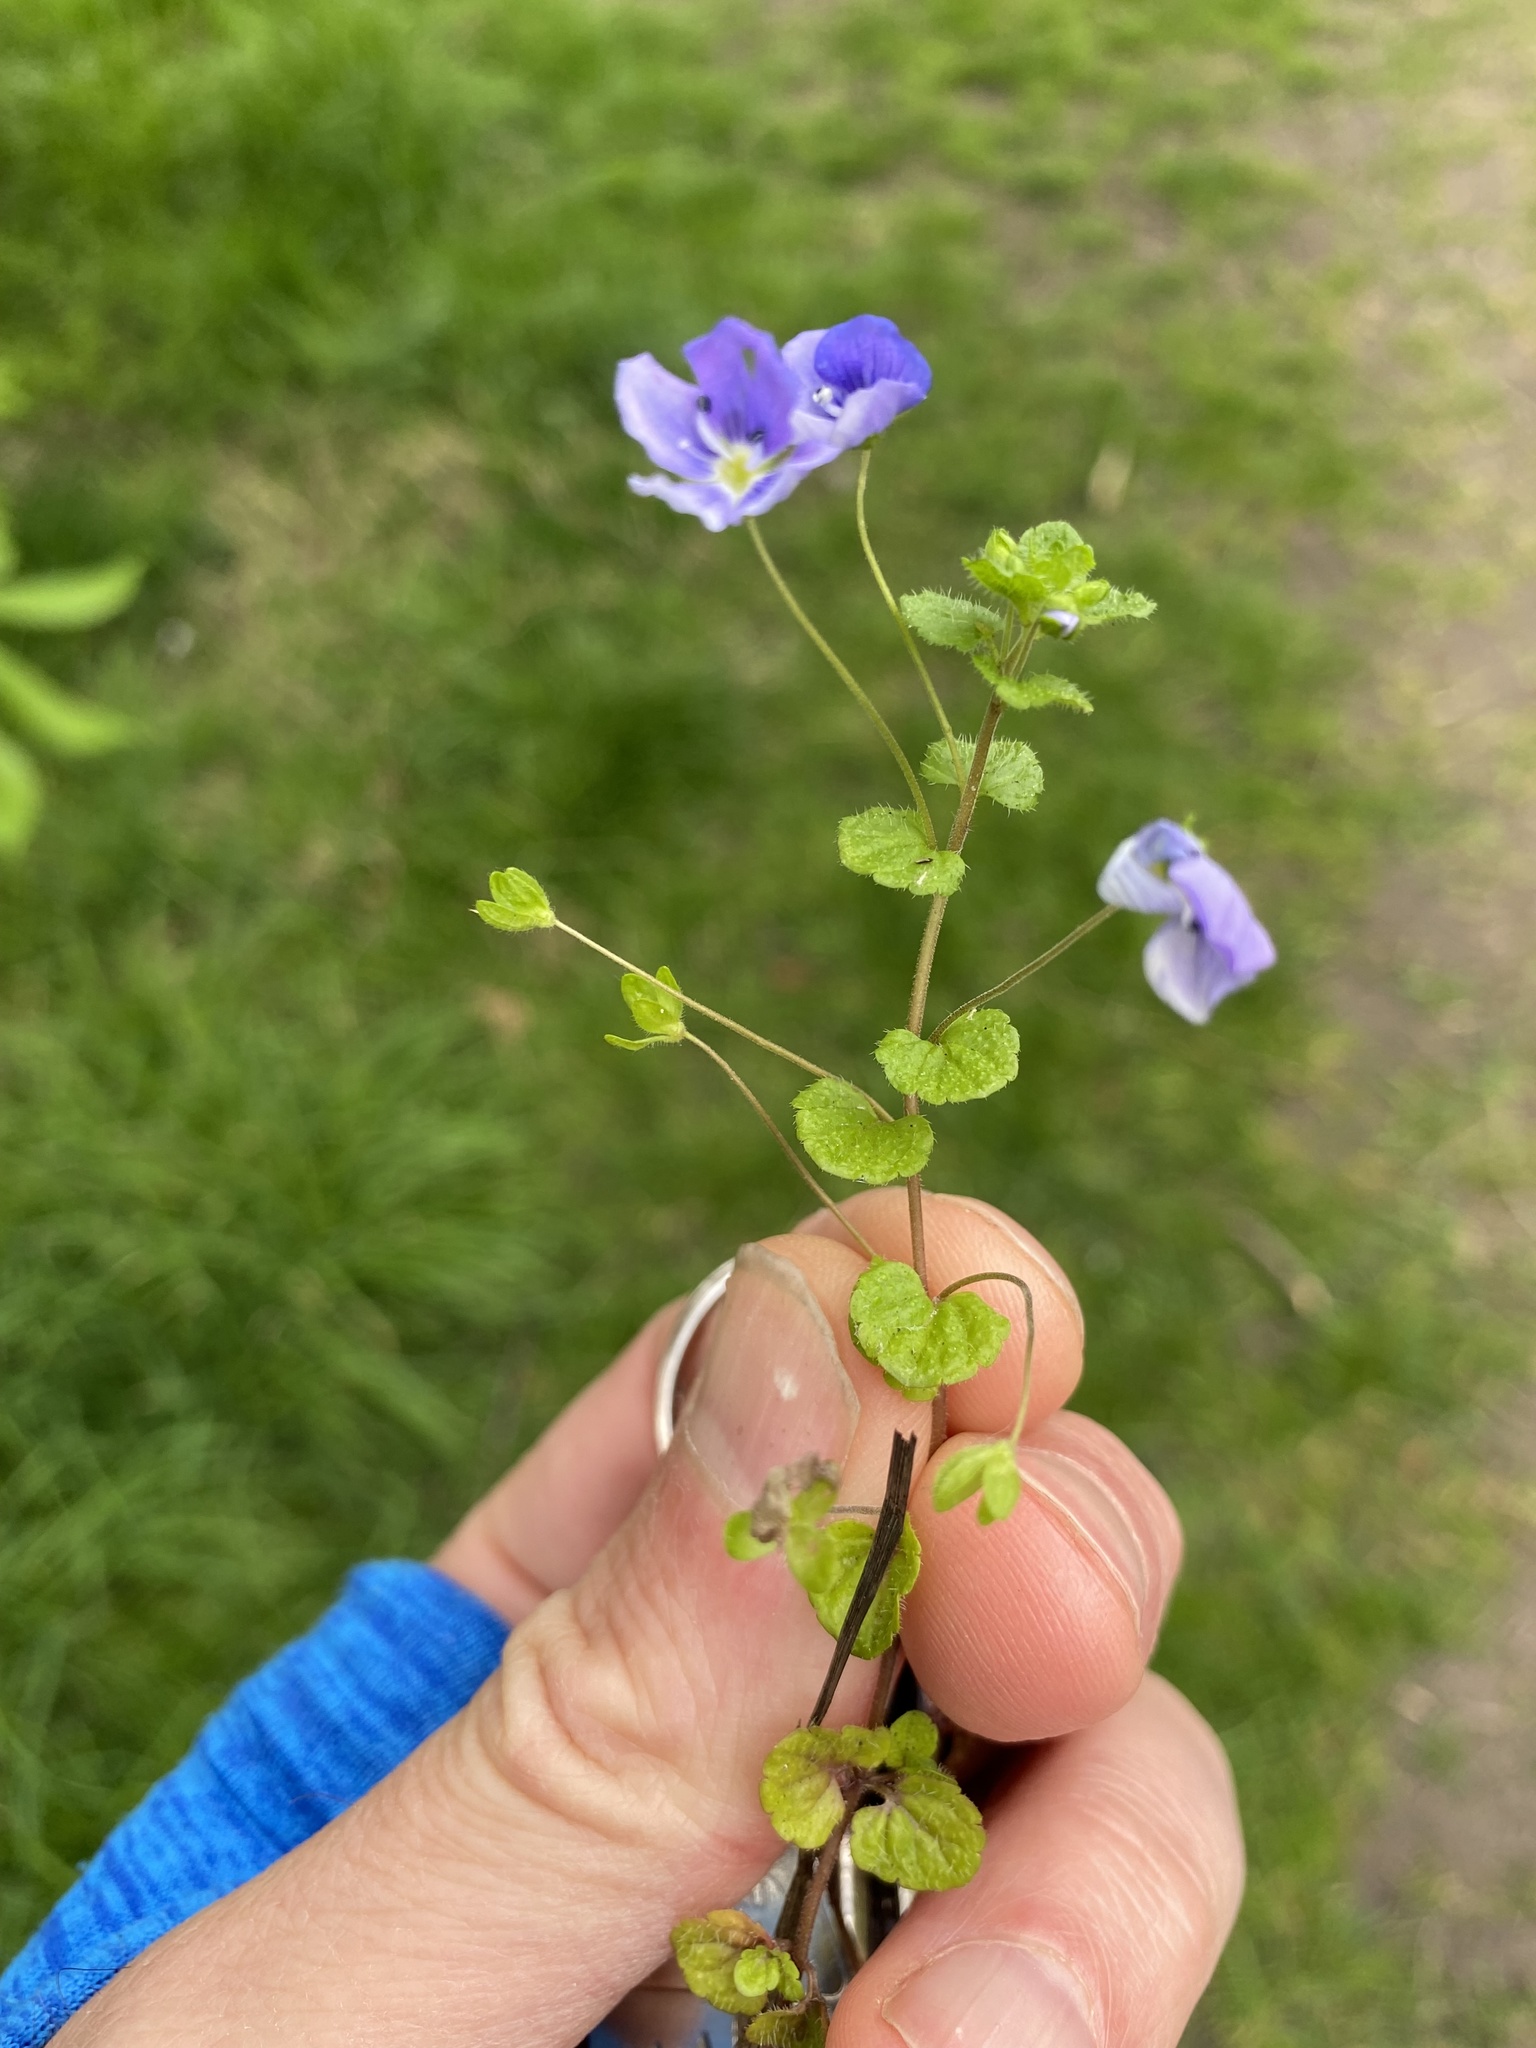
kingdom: Plantae
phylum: Tracheophyta
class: Magnoliopsida
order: Lamiales
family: Plantaginaceae
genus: Veronica
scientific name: Veronica filiformis
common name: Slender speedwell
